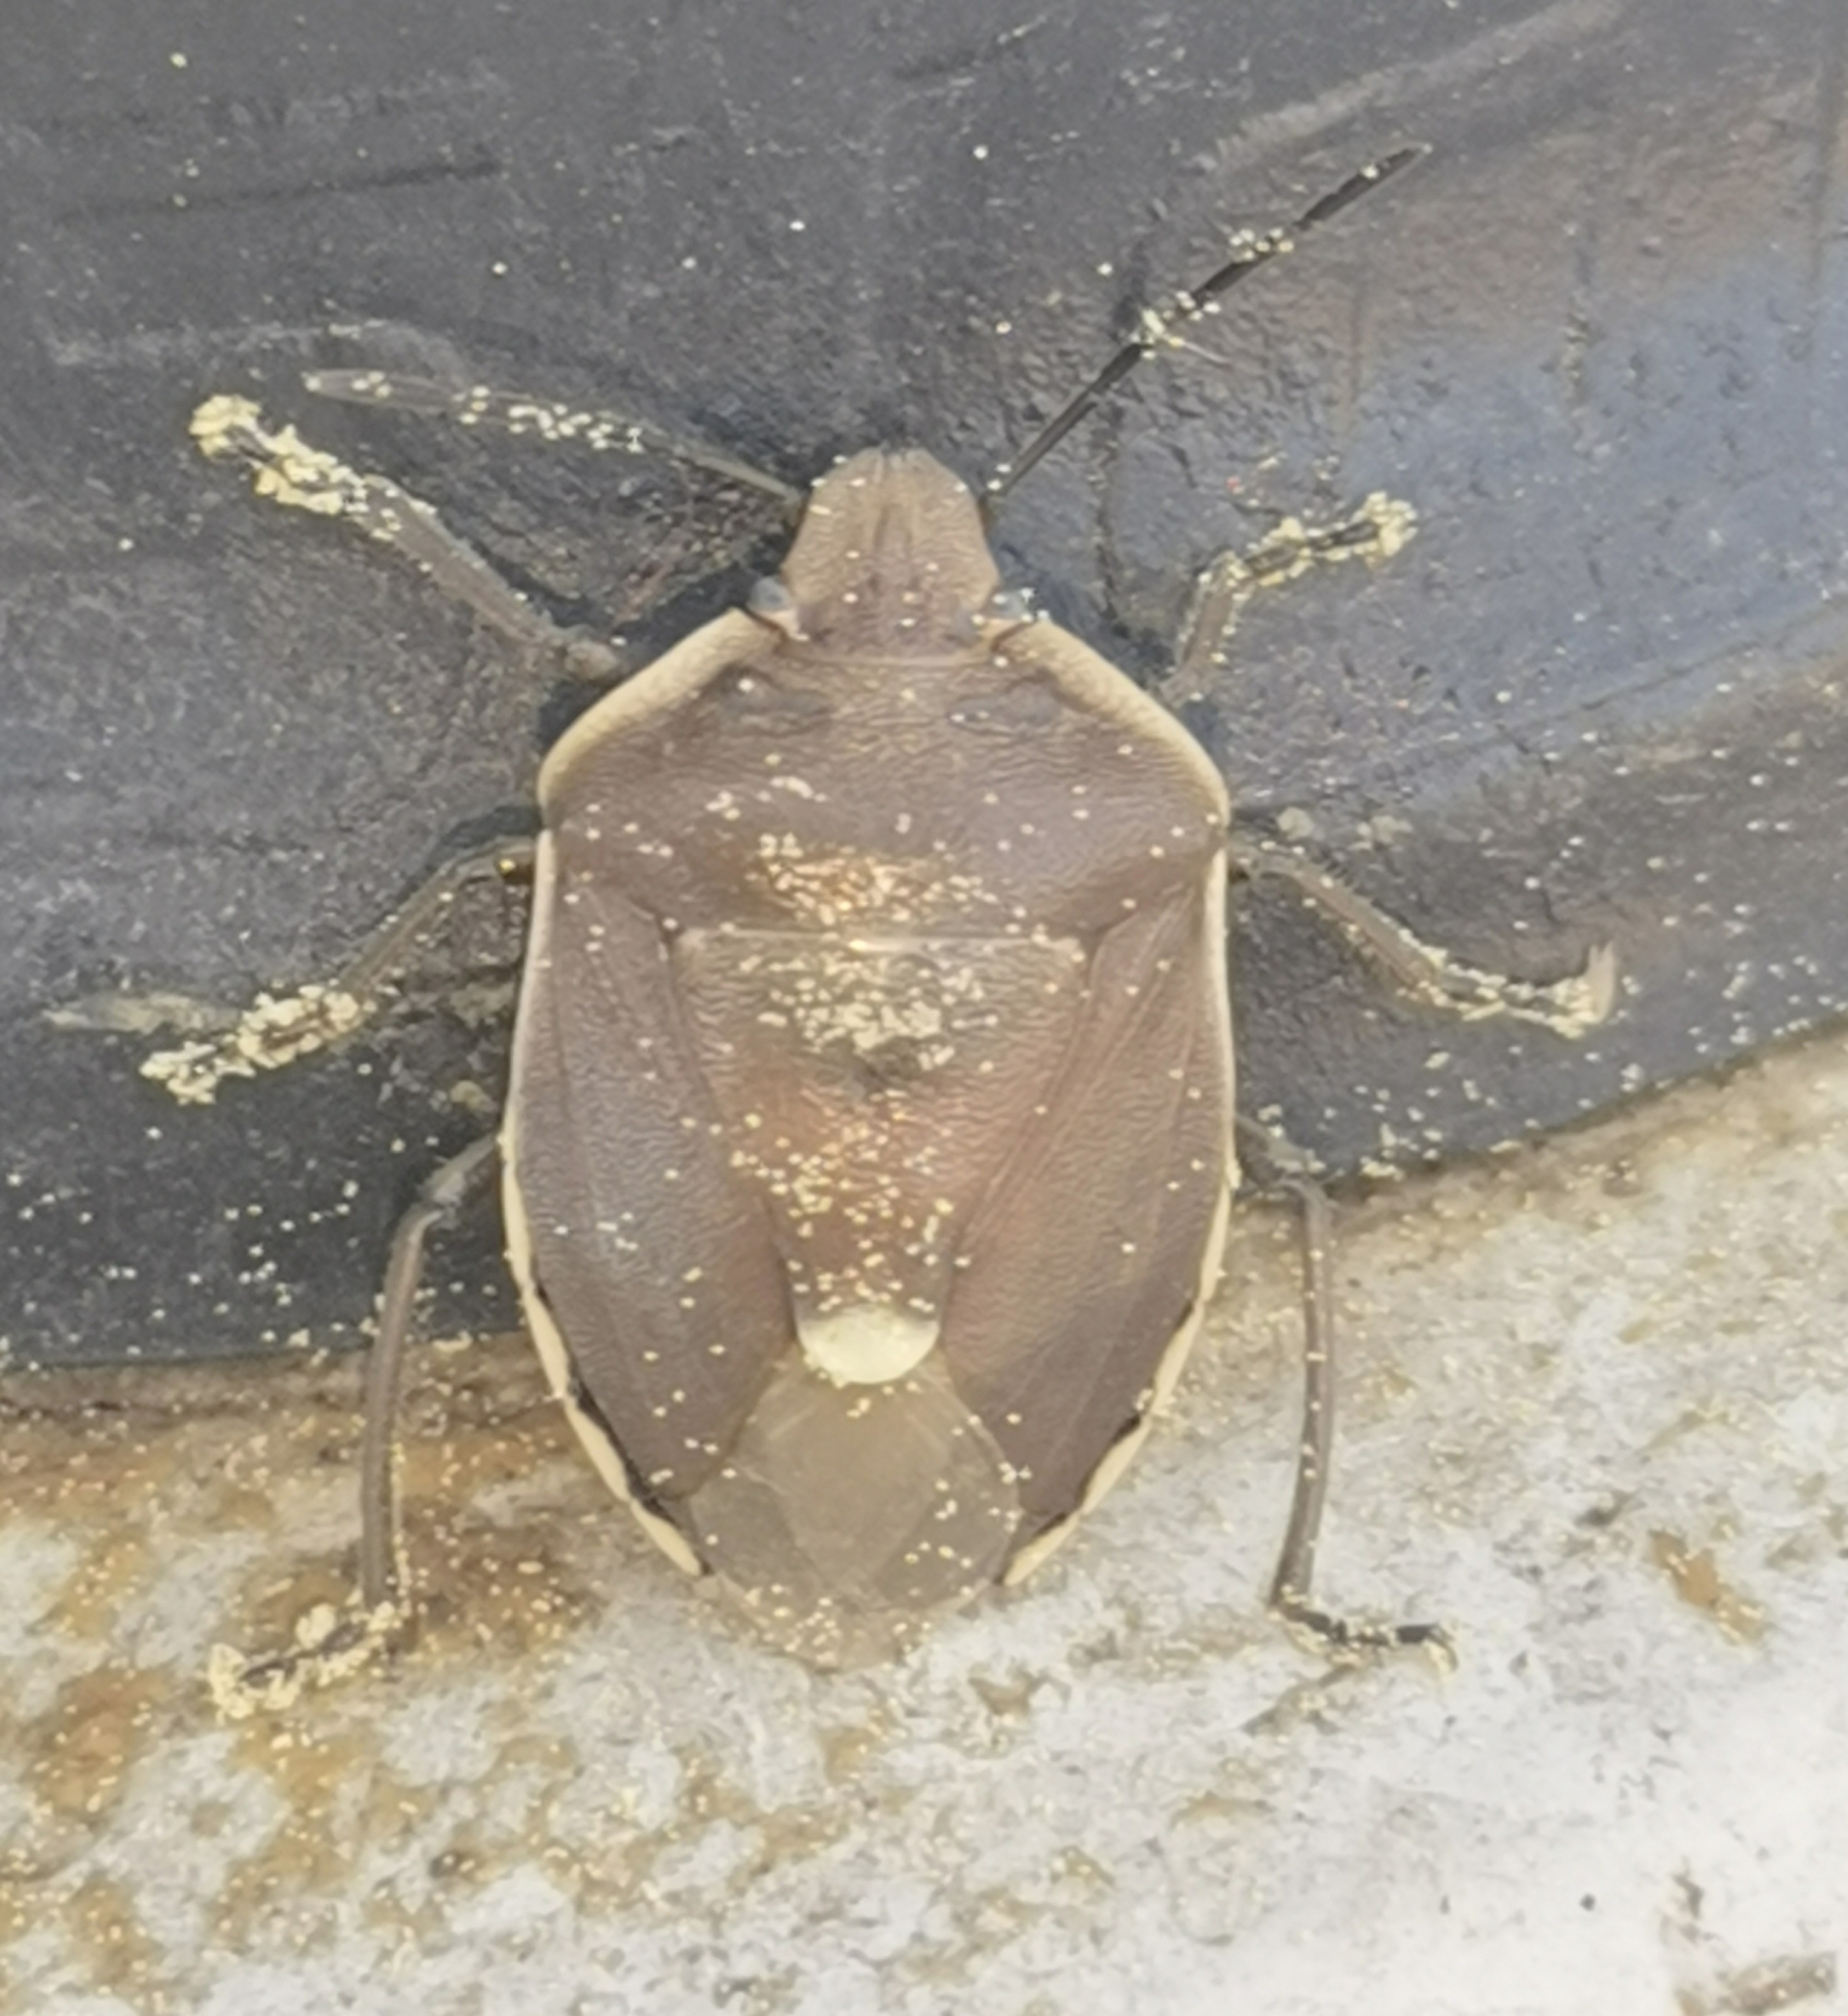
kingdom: Animalia
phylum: Arthropoda
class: Insecta
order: Hemiptera
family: Pentatomidae
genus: Chlorochroa
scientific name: Chlorochroa pinicola
